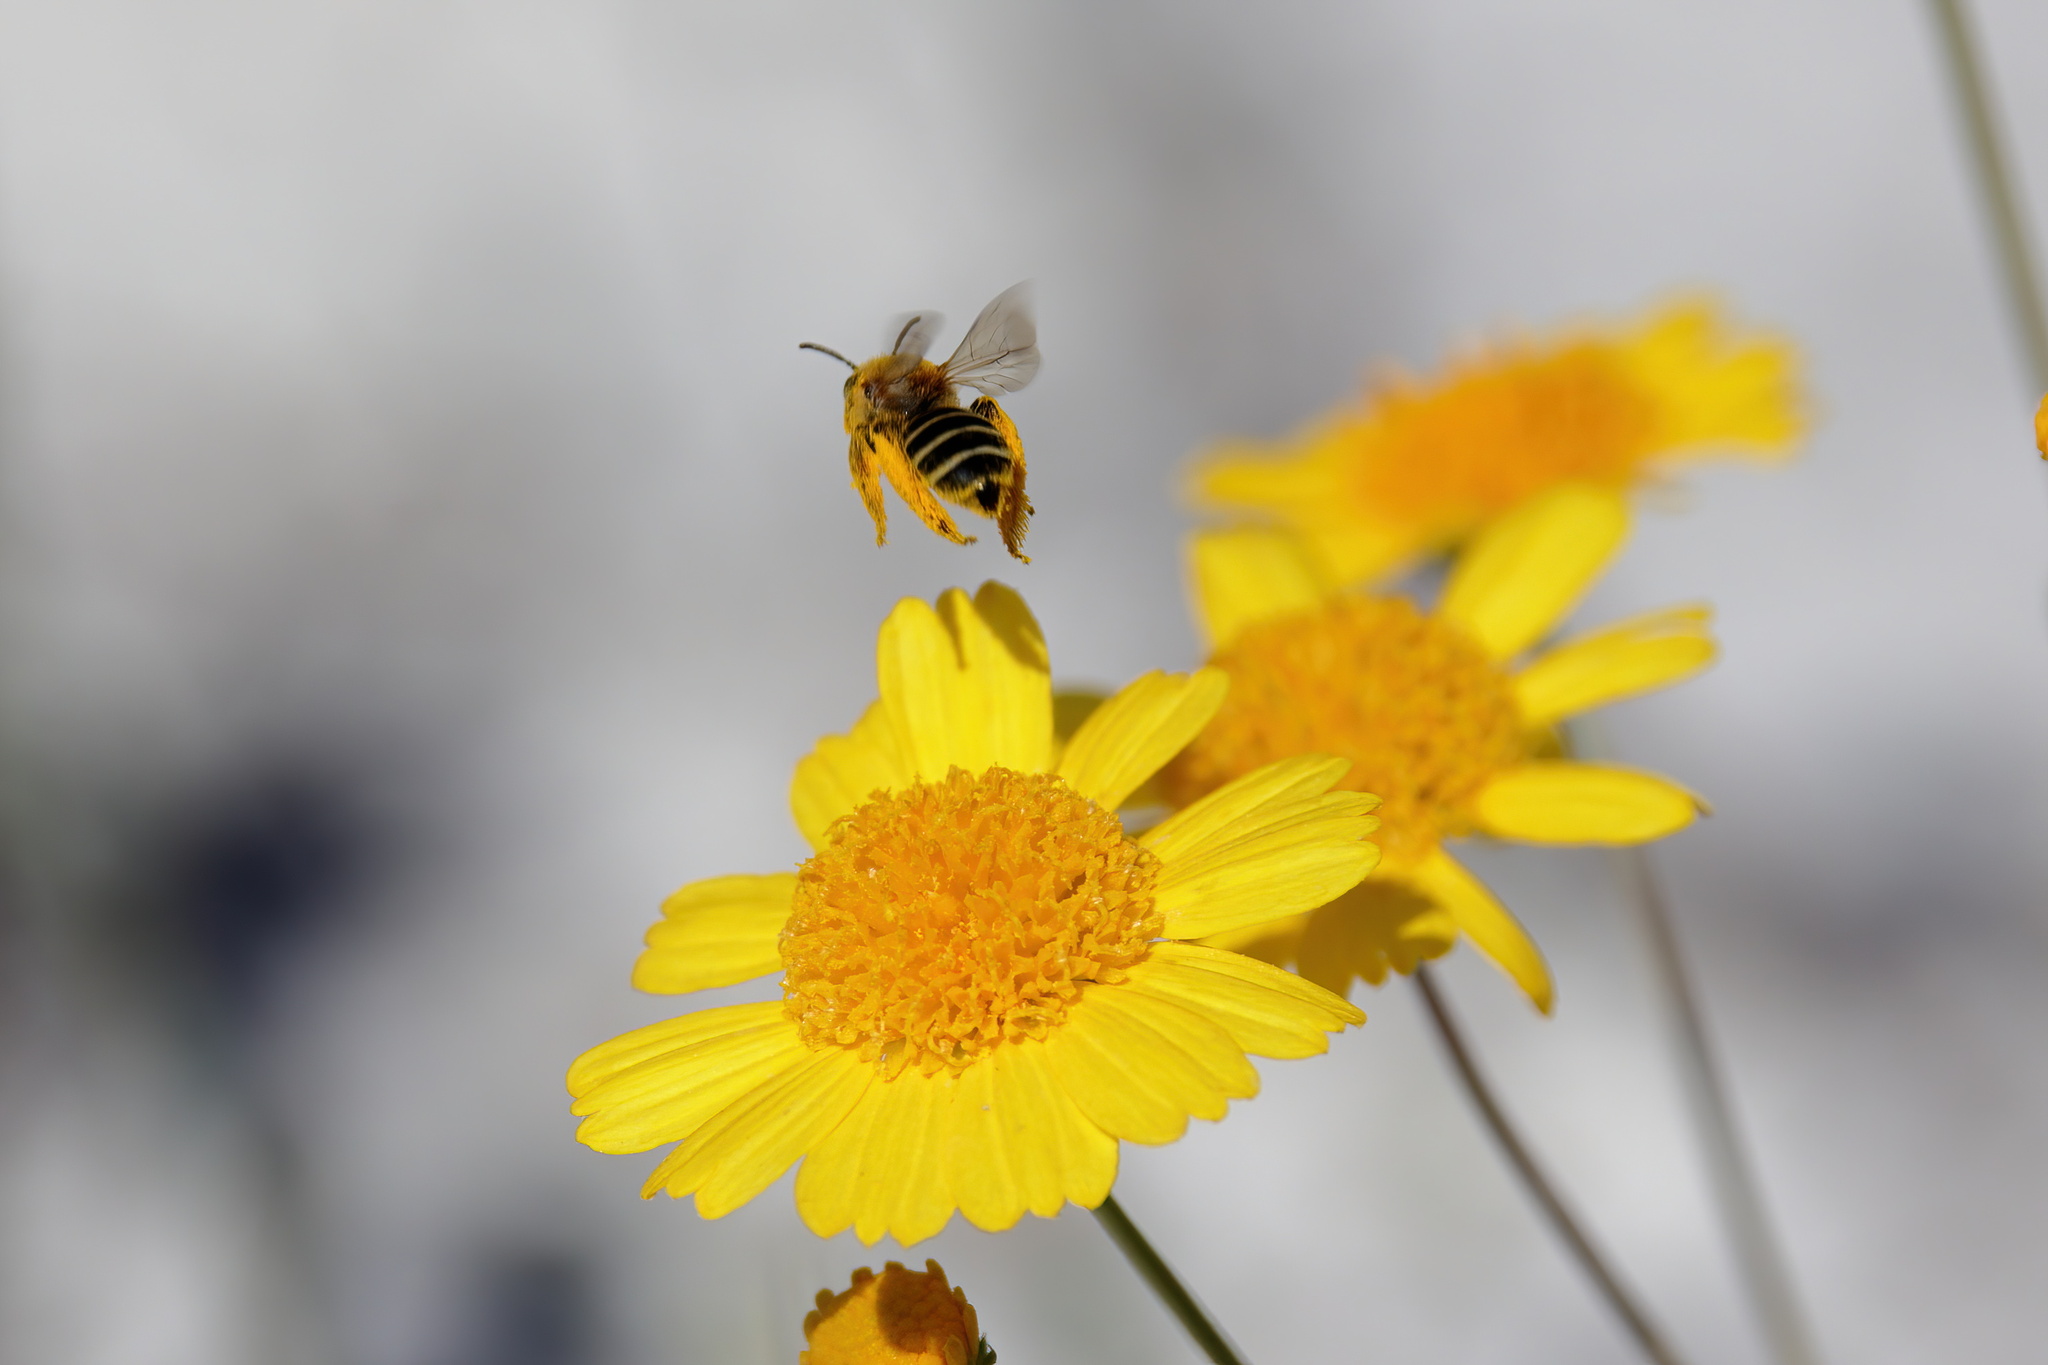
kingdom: Animalia
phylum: Arthropoda
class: Insecta
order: Hymenoptera
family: Melittidae
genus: Hesperapis
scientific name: Hesperapis oraria
